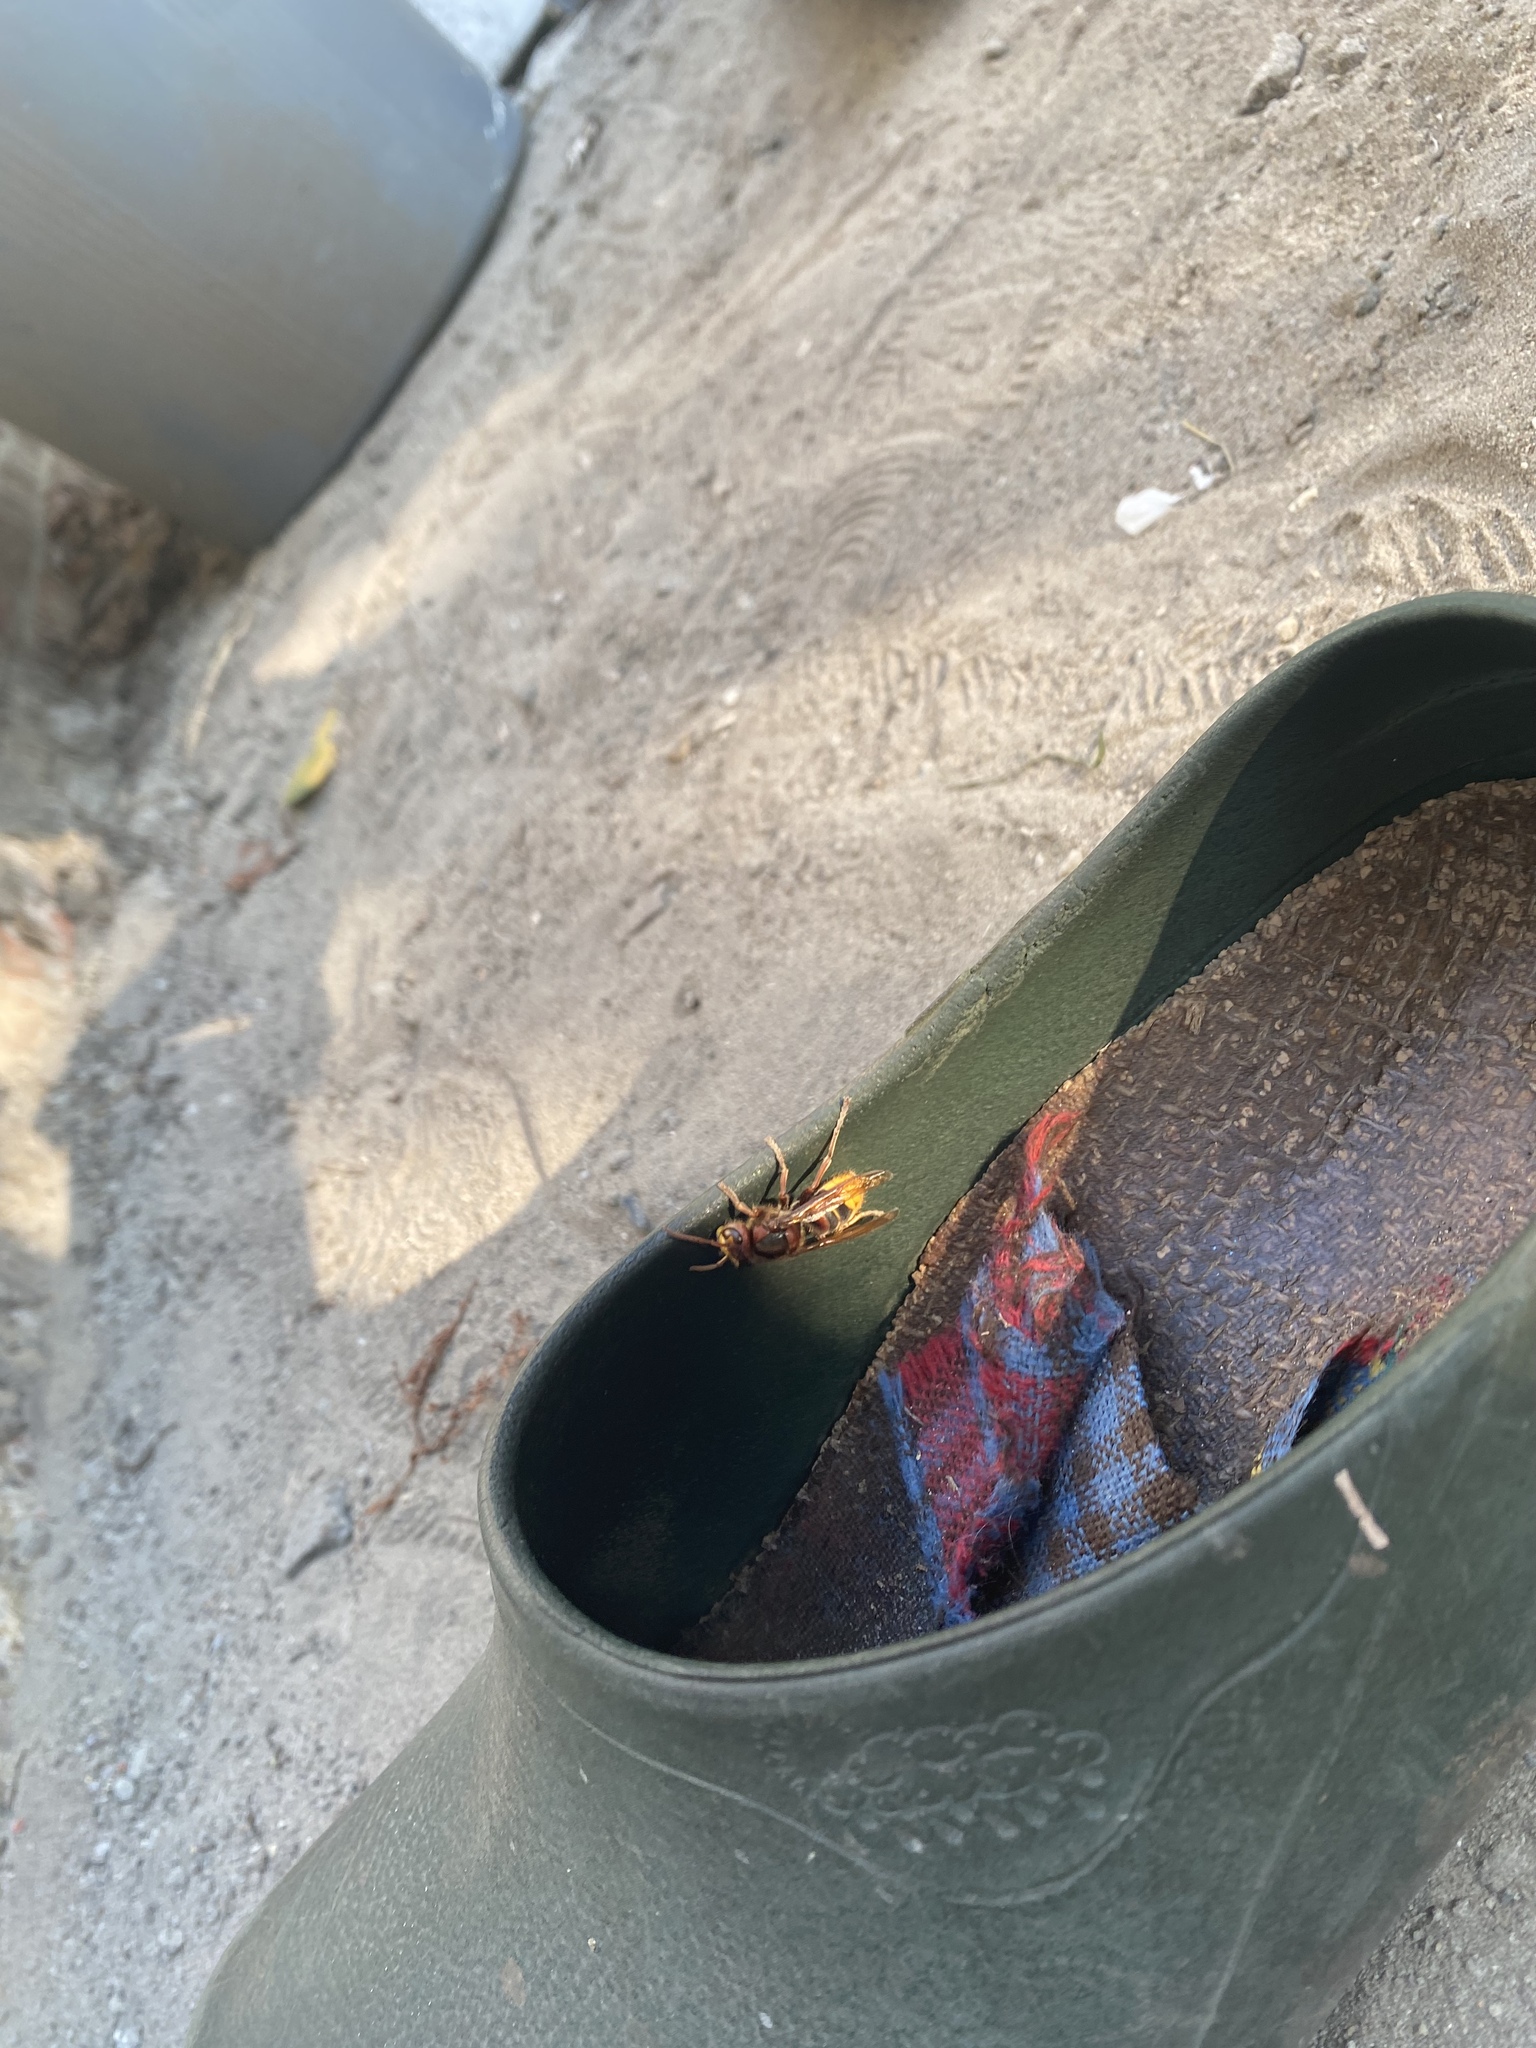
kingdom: Animalia
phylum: Arthropoda
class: Insecta
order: Hymenoptera
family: Vespidae
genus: Vespa
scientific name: Vespa crabro
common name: Hornet
